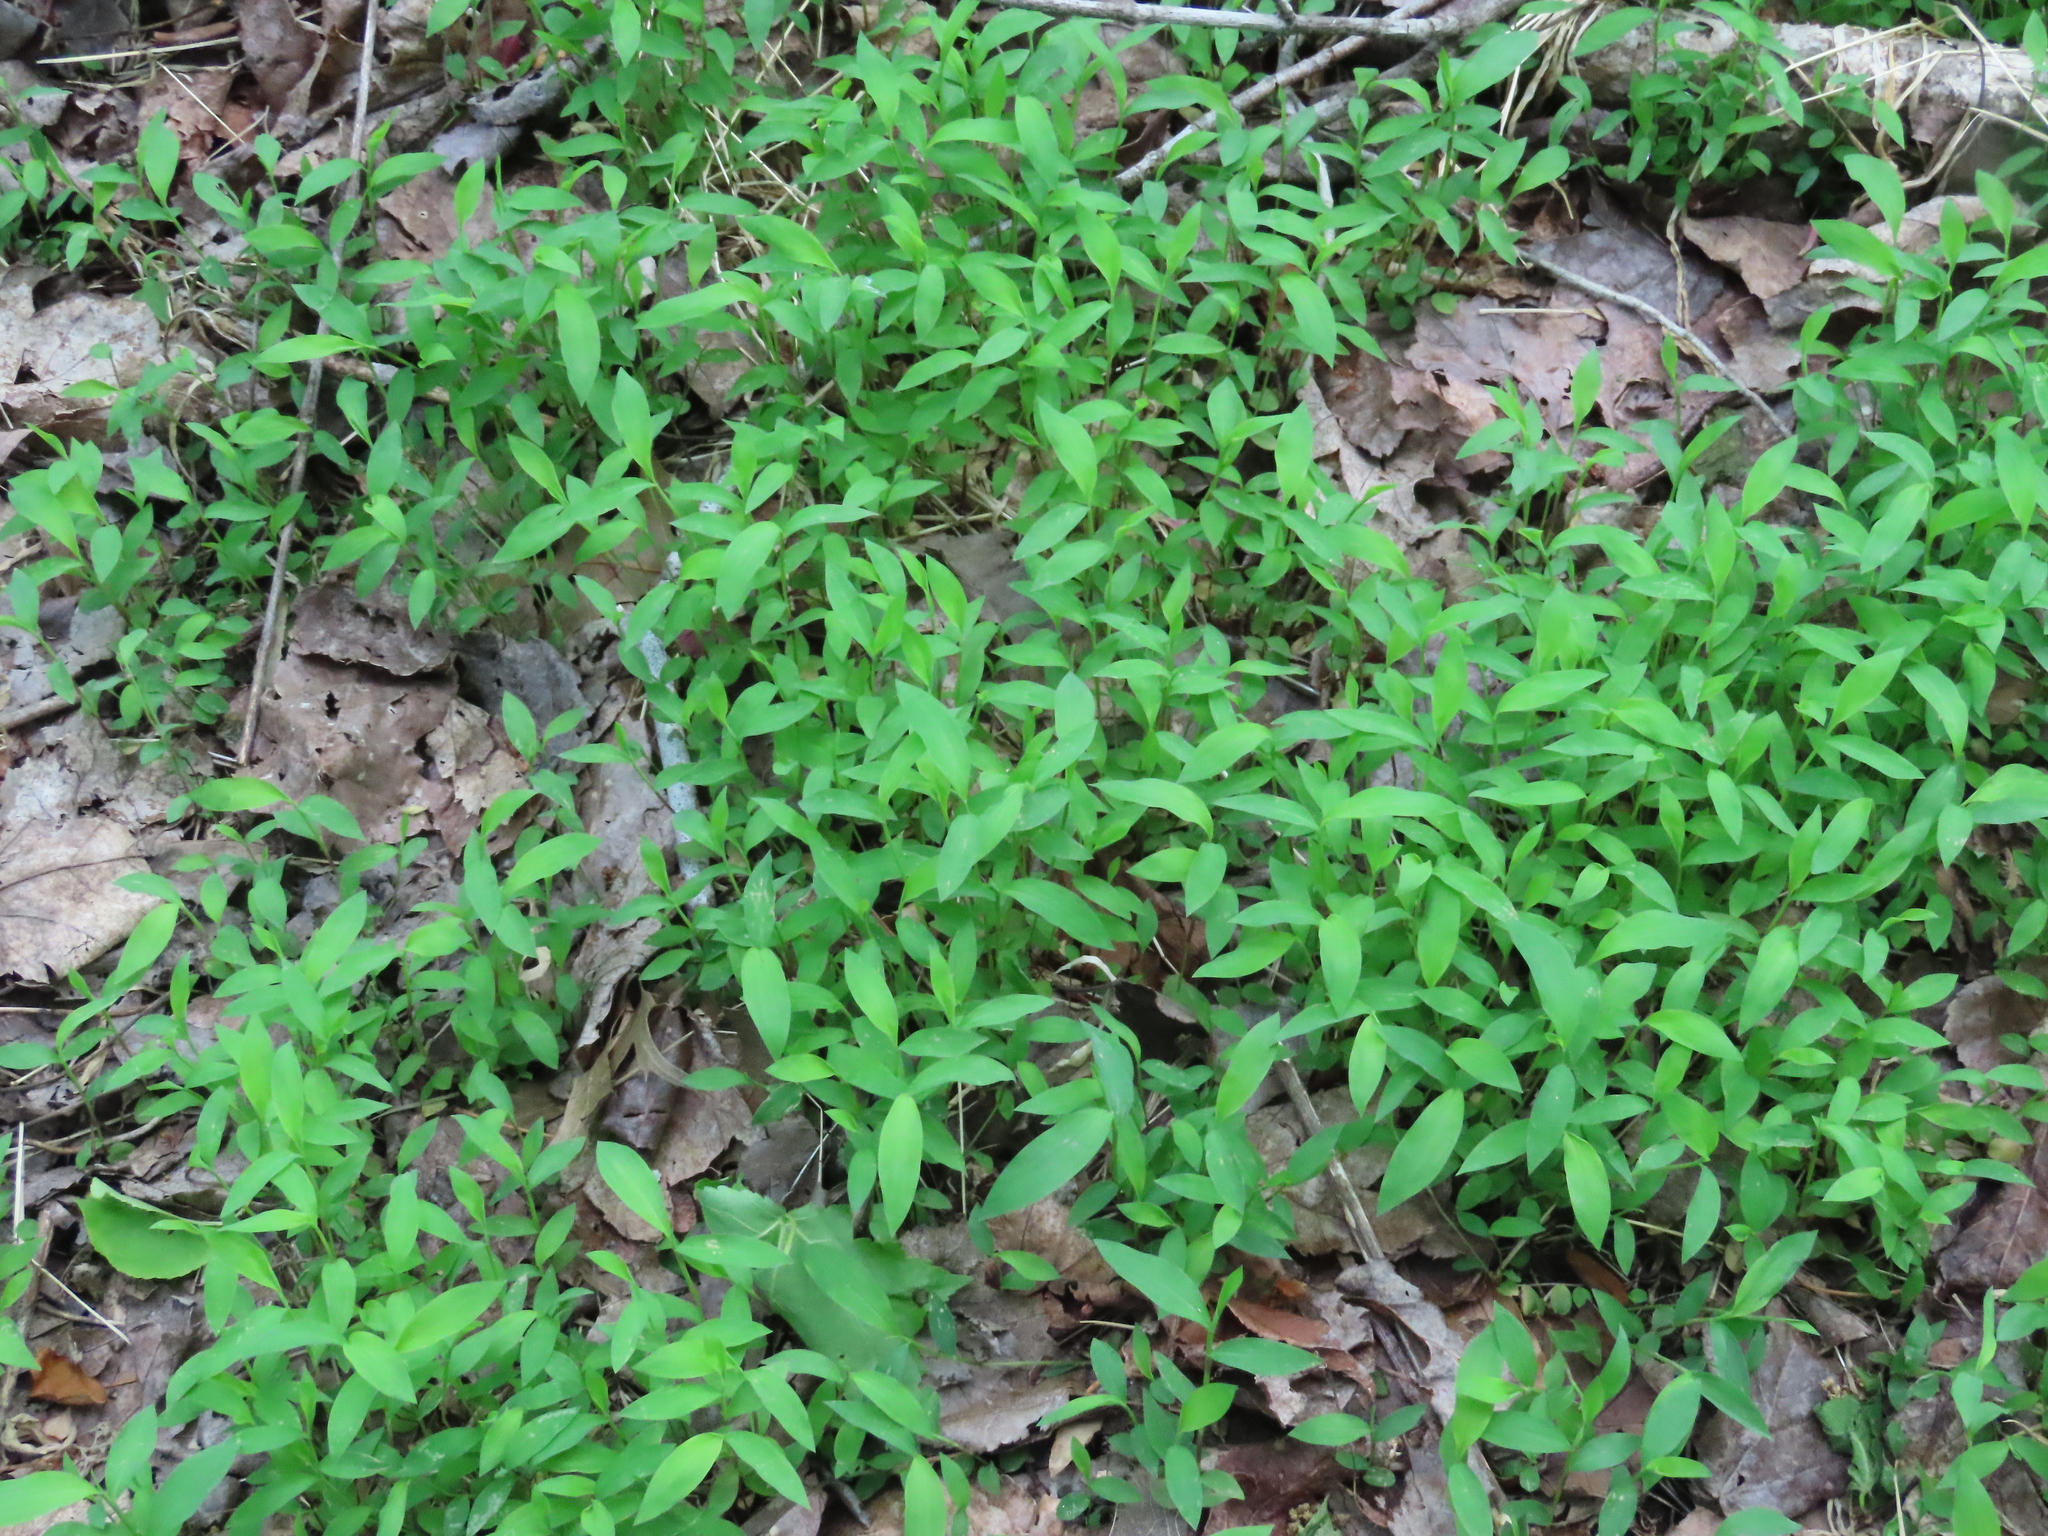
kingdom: Plantae
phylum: Tracheophyta
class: Liliopsida
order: Poales
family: Poaceae
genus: Microstegium
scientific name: Microstegium vimineum
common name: Japanese stiltgrass
